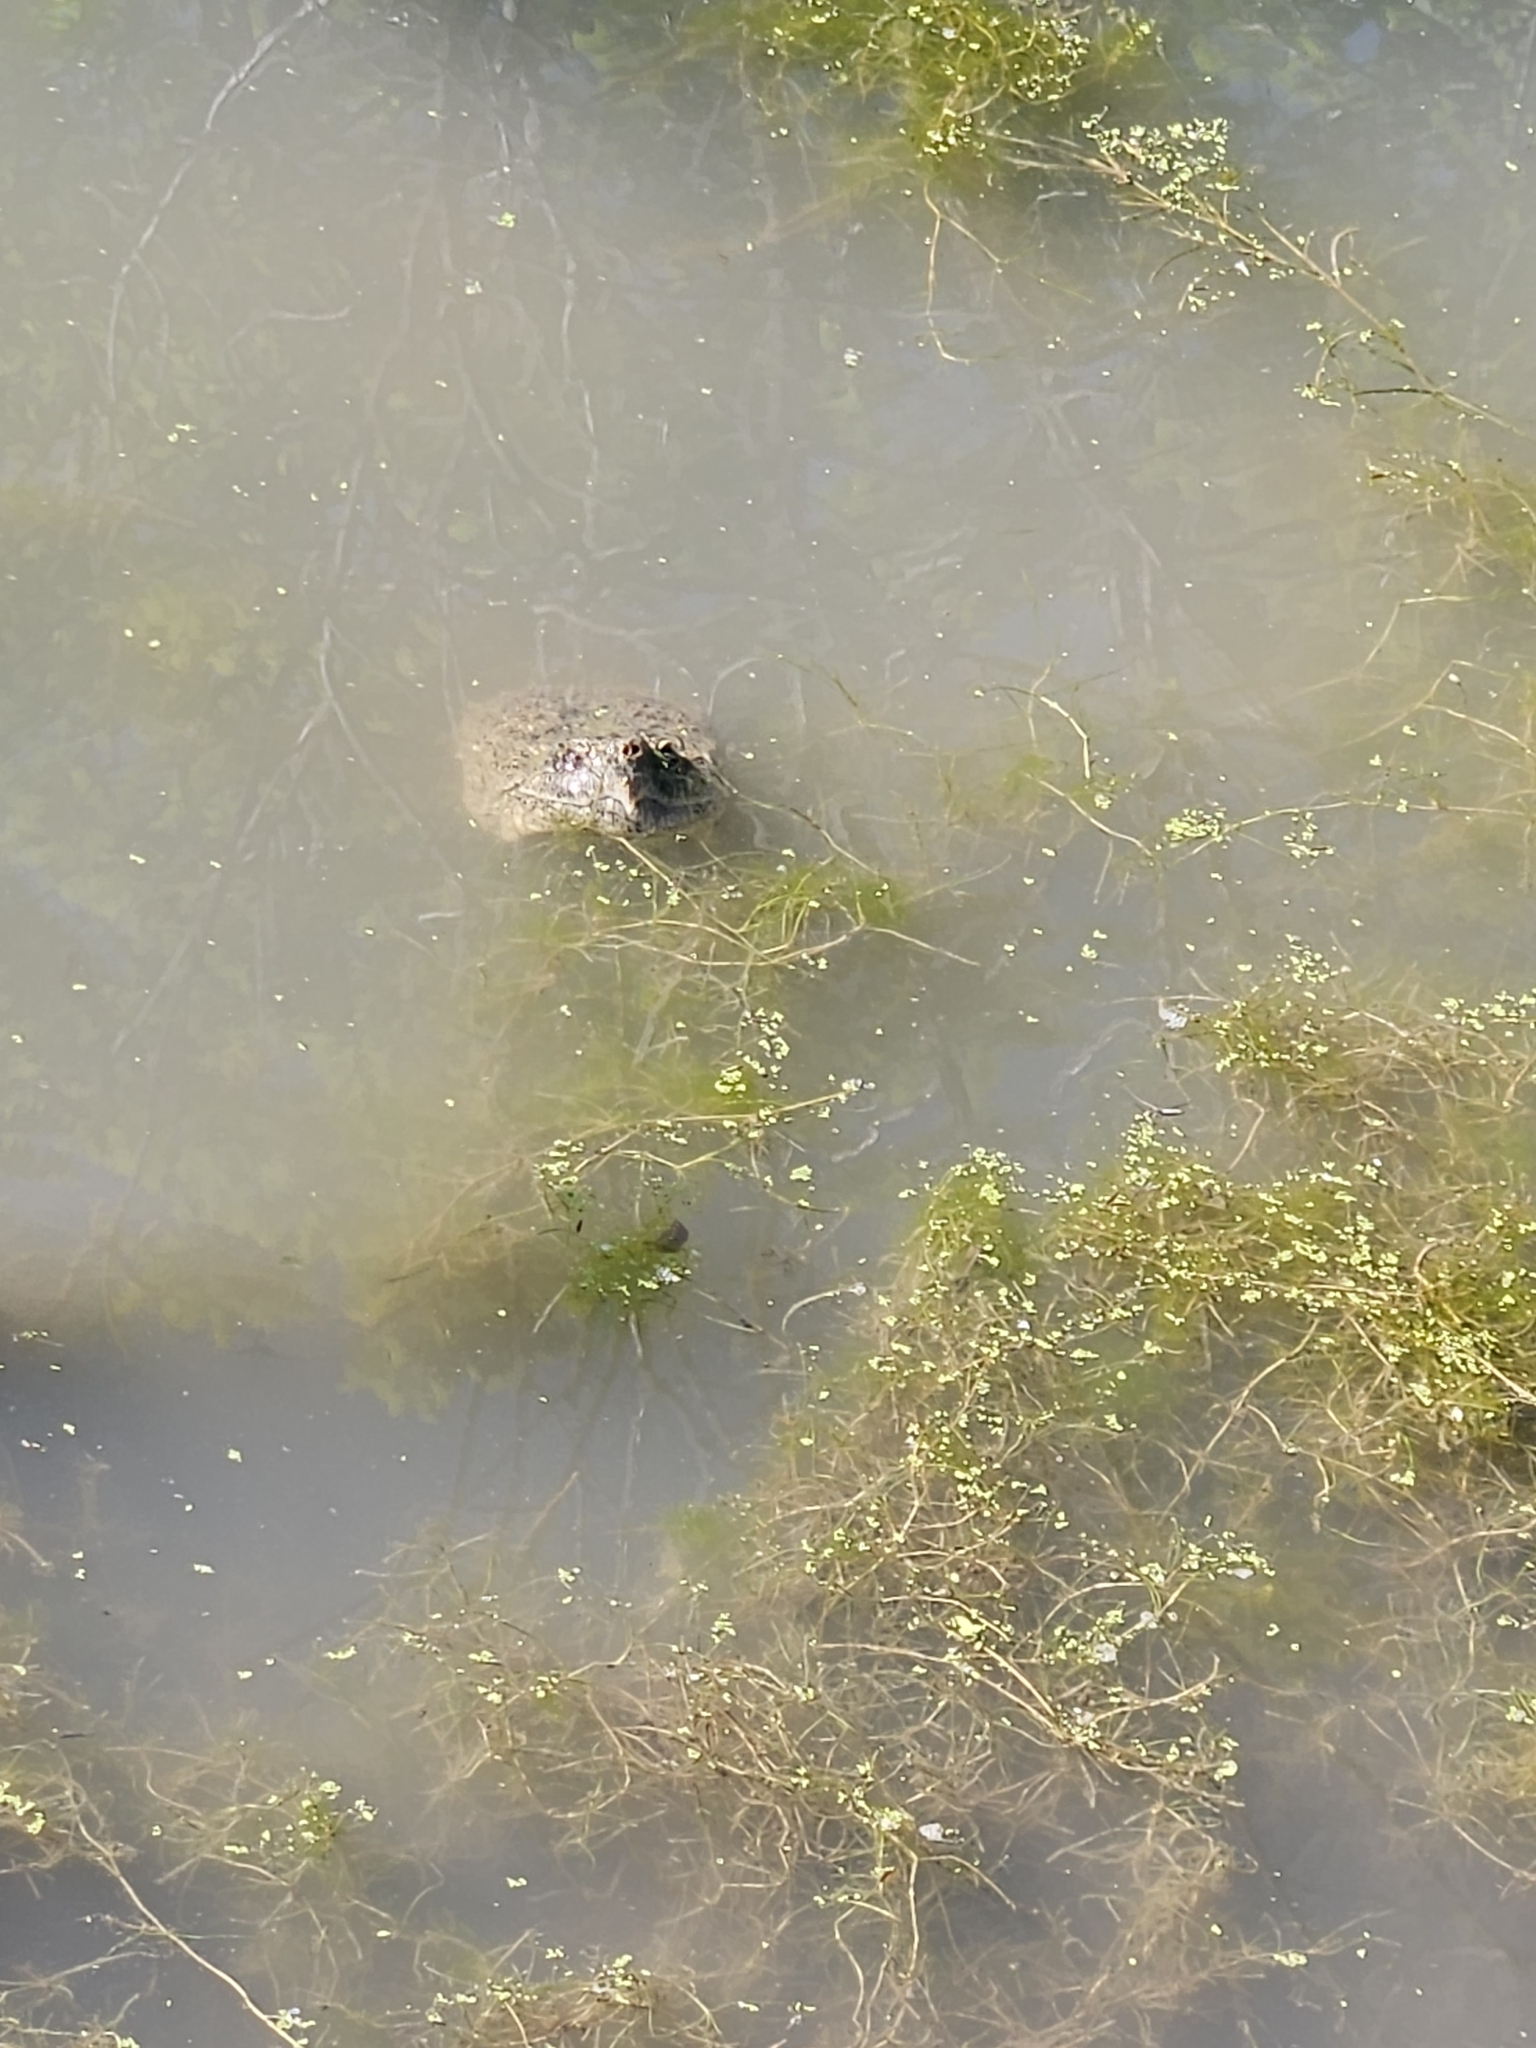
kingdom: Animalia
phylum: Chordata
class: Testudines
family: Chelydridae
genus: Chelydra
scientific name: Chelydra serpentina
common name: Common snapping turtle
